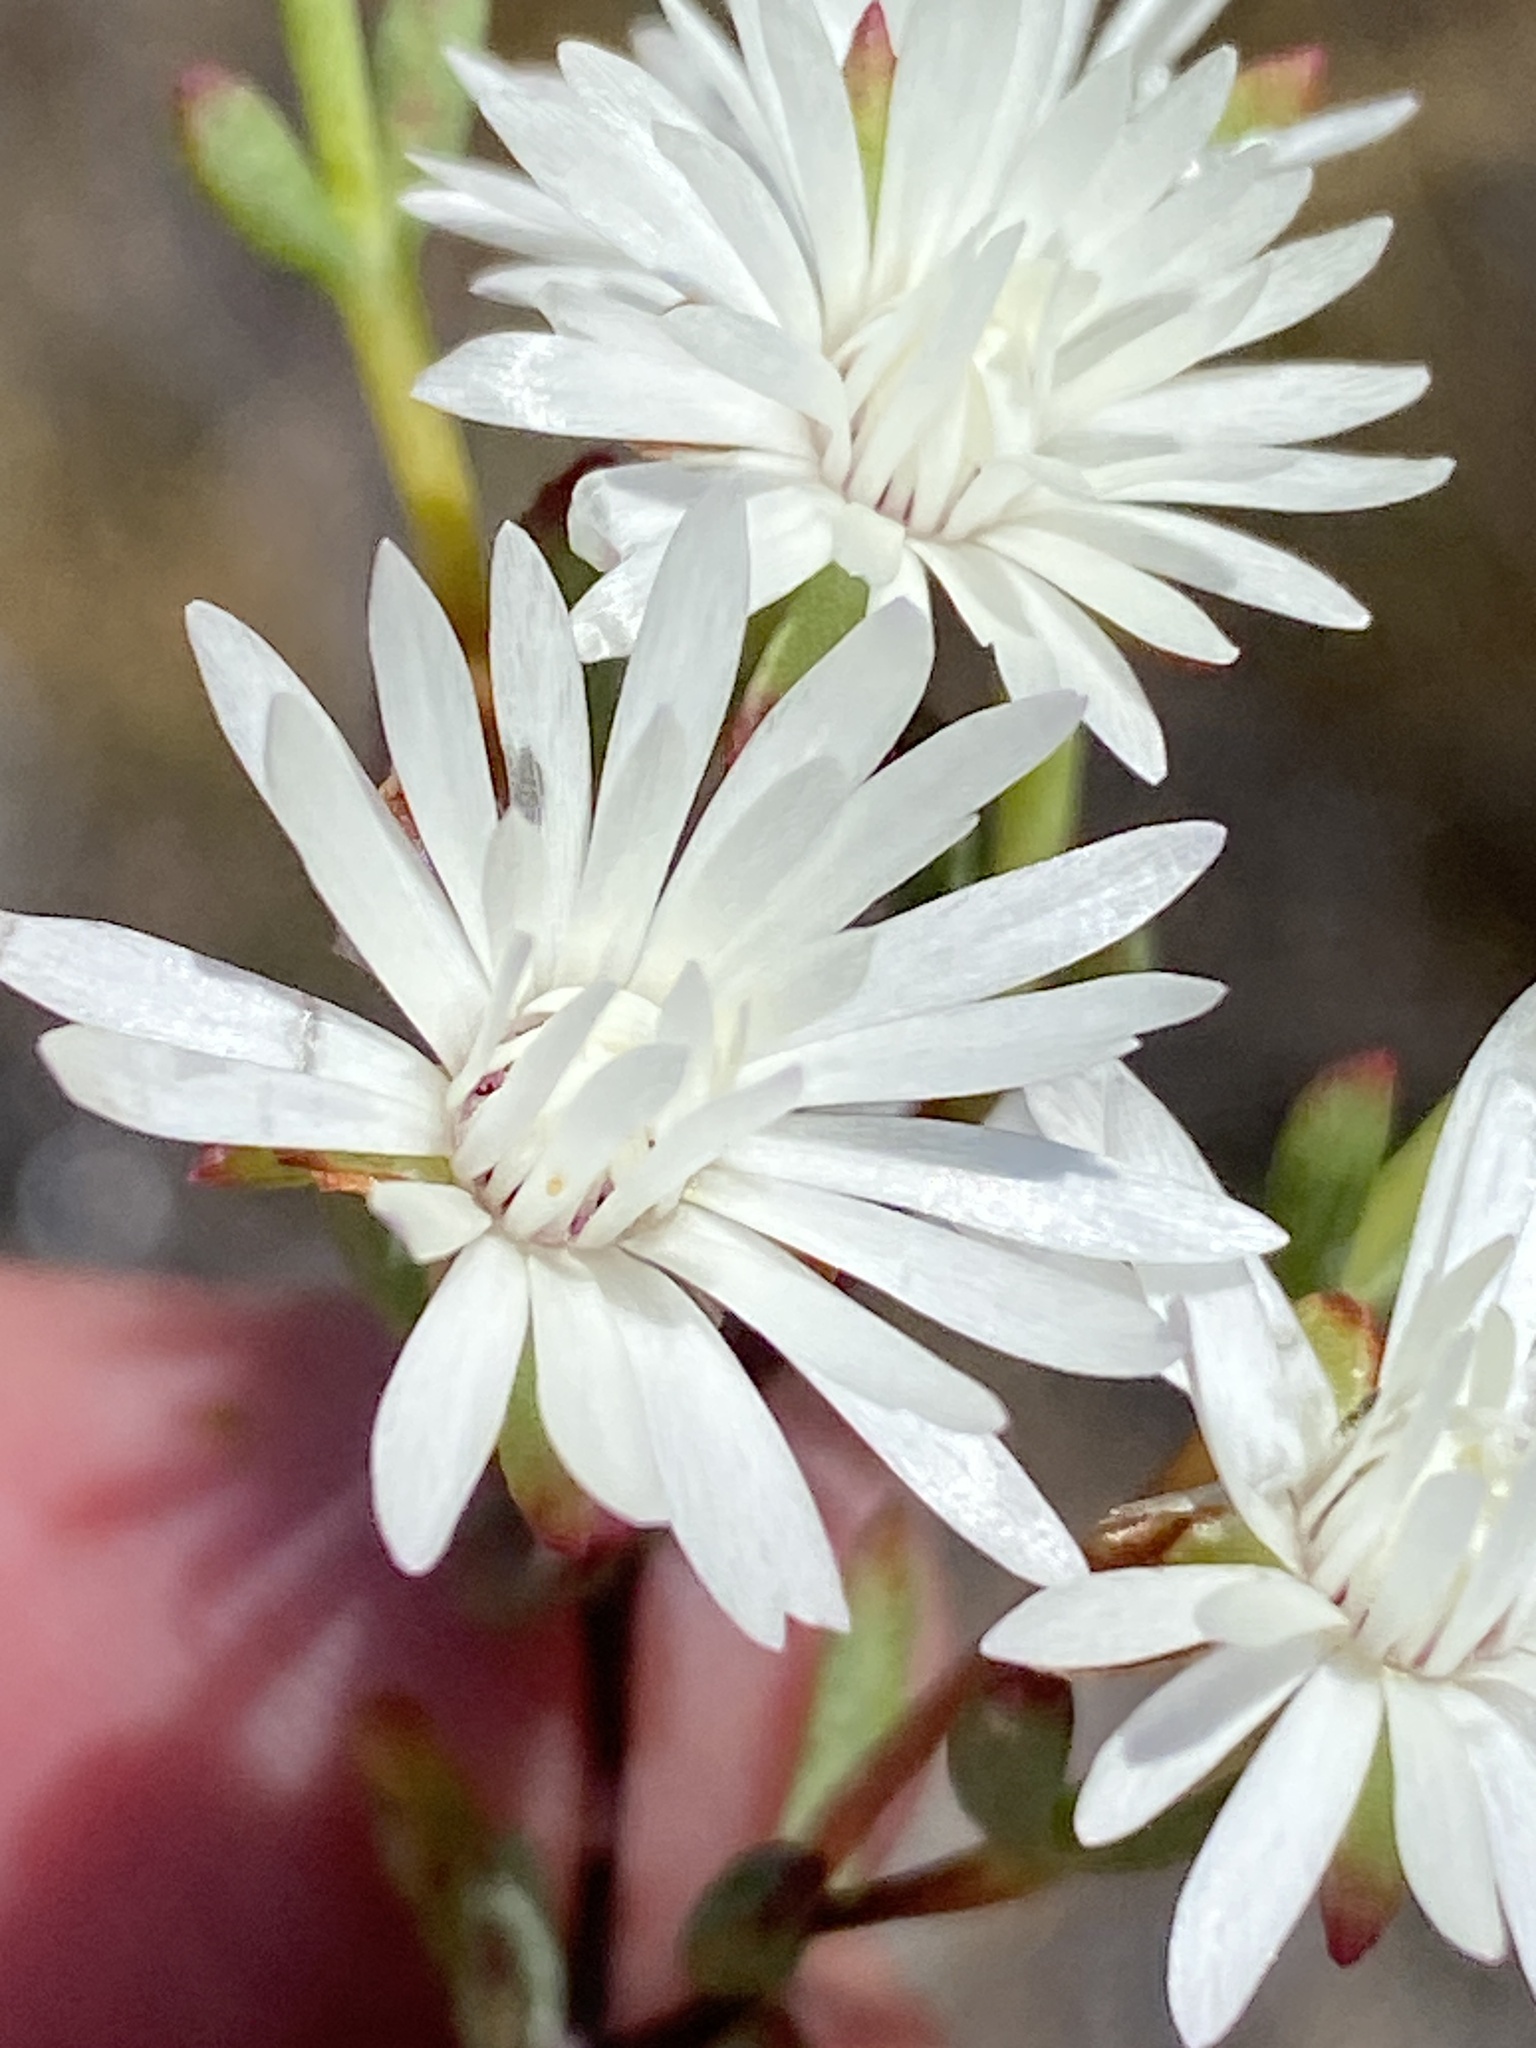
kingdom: Plantae
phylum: Tracheophyta
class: Magnoliopsida
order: Caryophyllales
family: Aizoaceae
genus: Lampranthus
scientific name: Lampranthus falcatus
